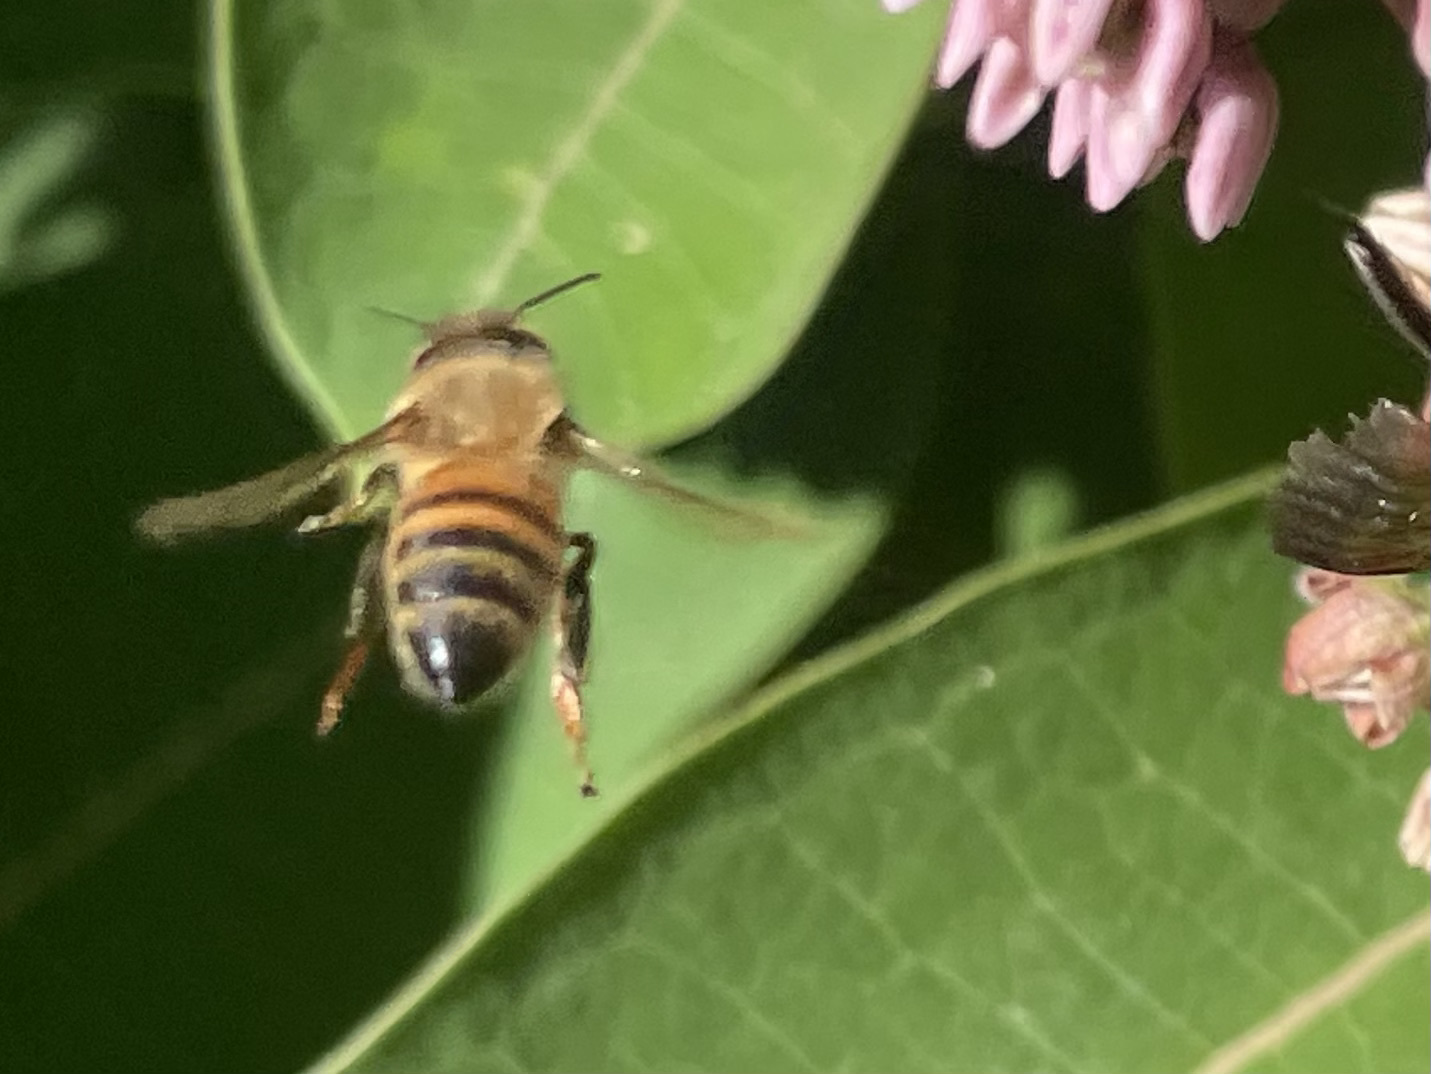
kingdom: Animalia
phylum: Arthropoda
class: Insecta
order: Hymenoptera
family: Apidae
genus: Apis
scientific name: Apis mellifera
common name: Honey bee
